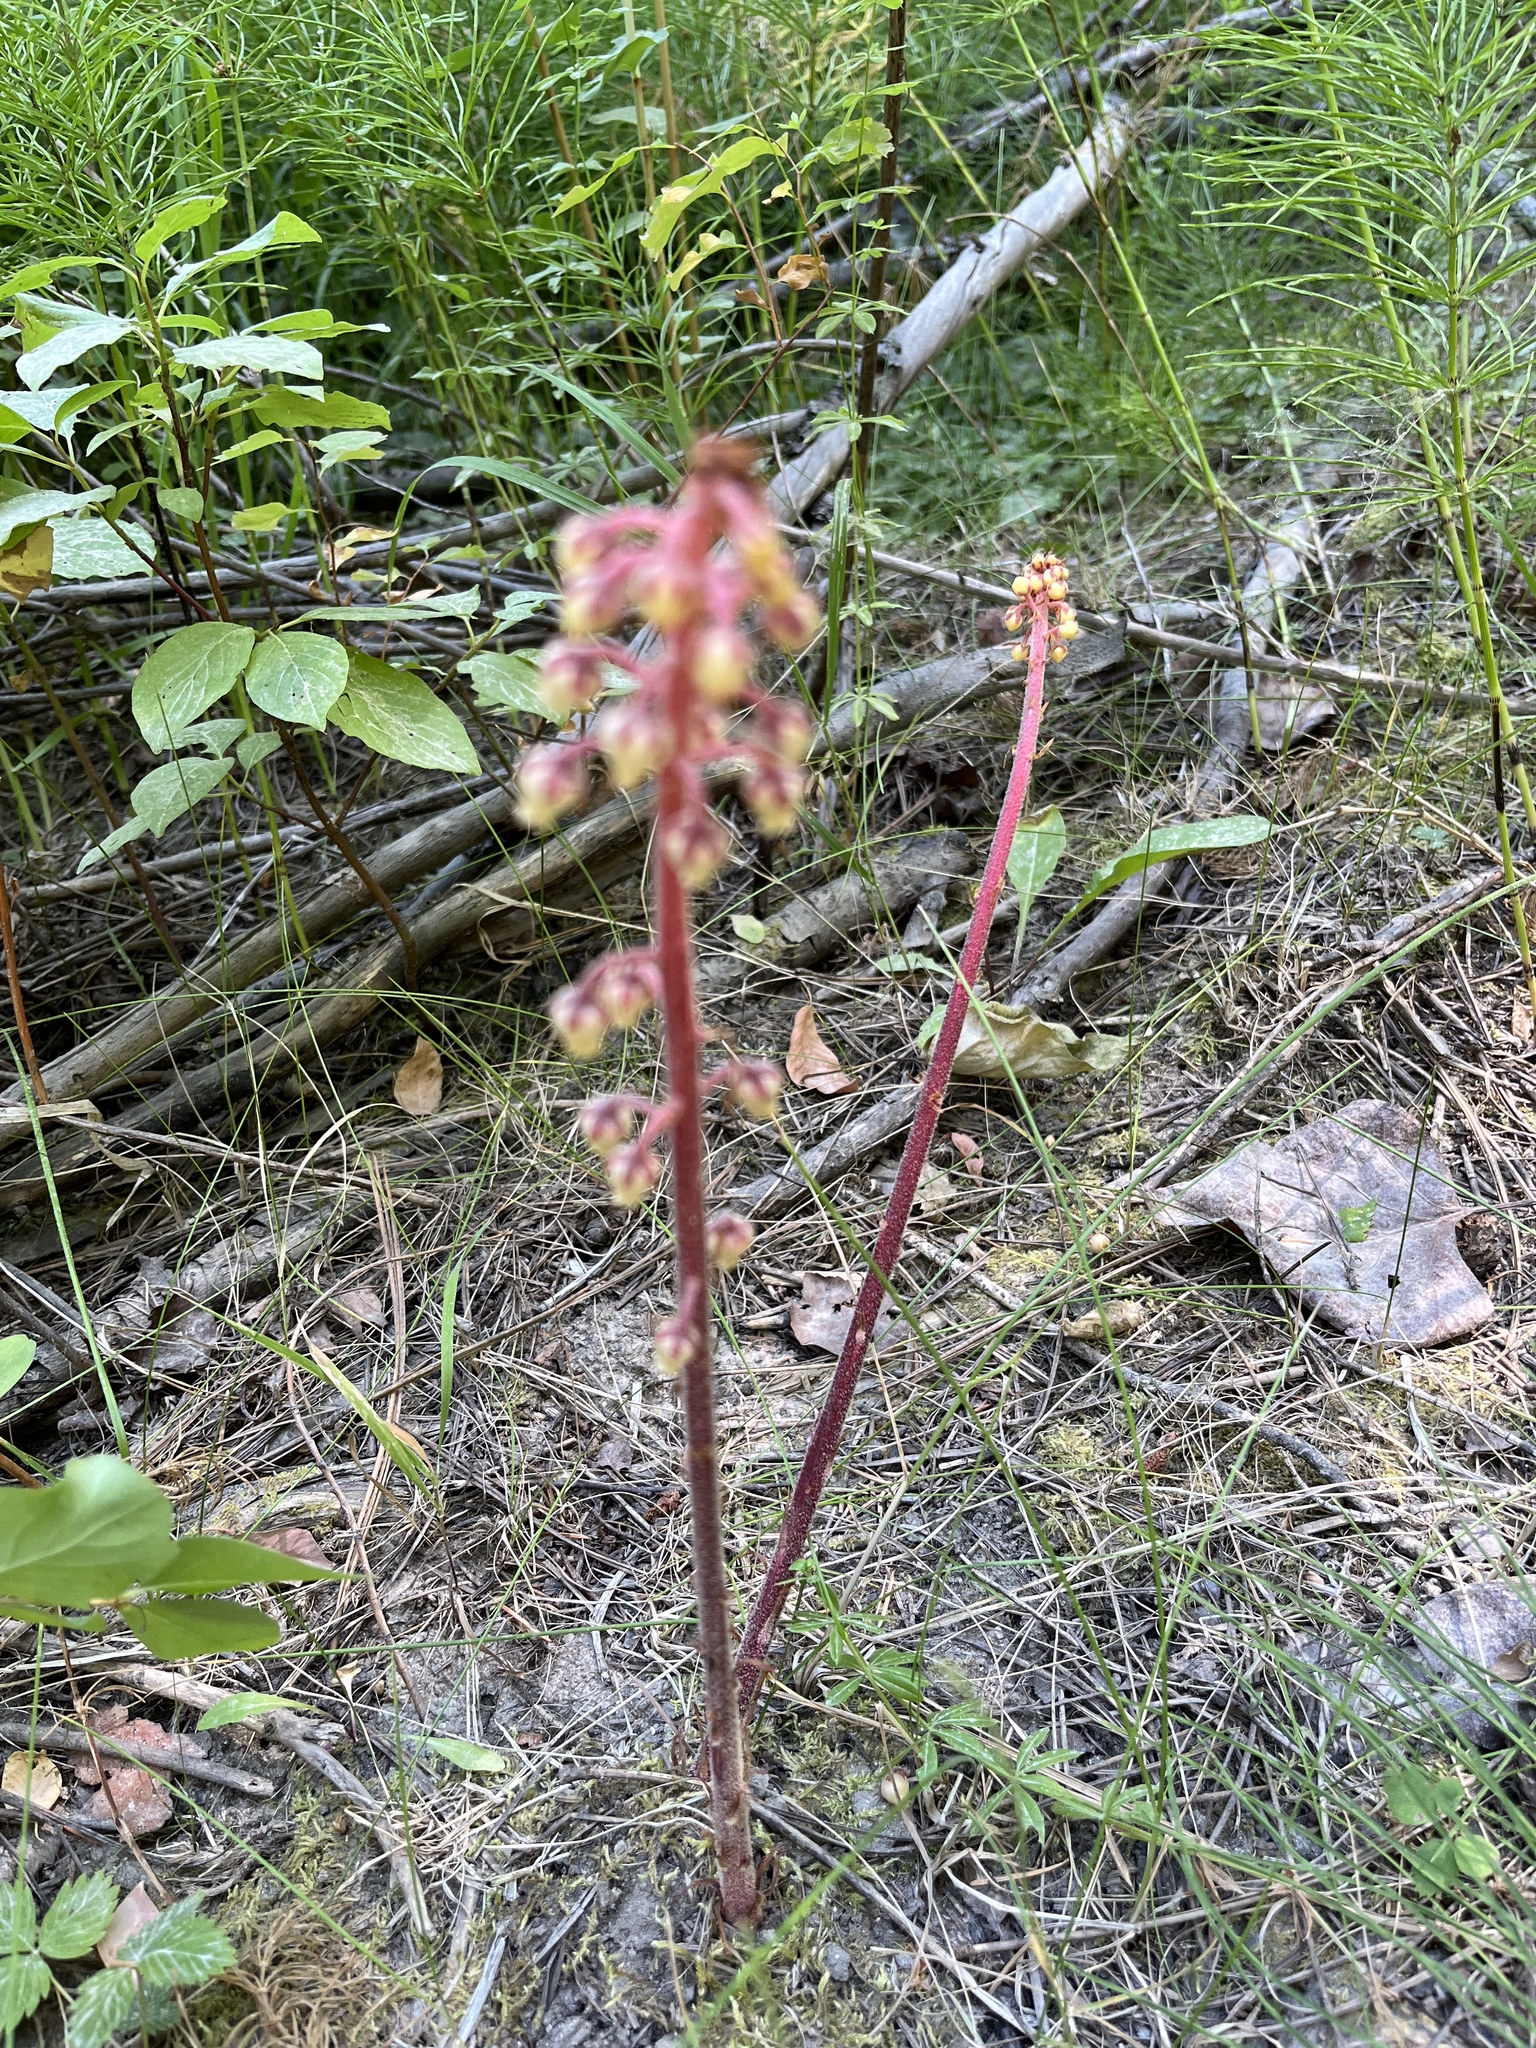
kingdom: Plantae
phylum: Tracheophyta
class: Magnoliopsida
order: Ericales
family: Ericaceae
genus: Pterospora
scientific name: Pterospora andromedea
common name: Giant bird's-nest
